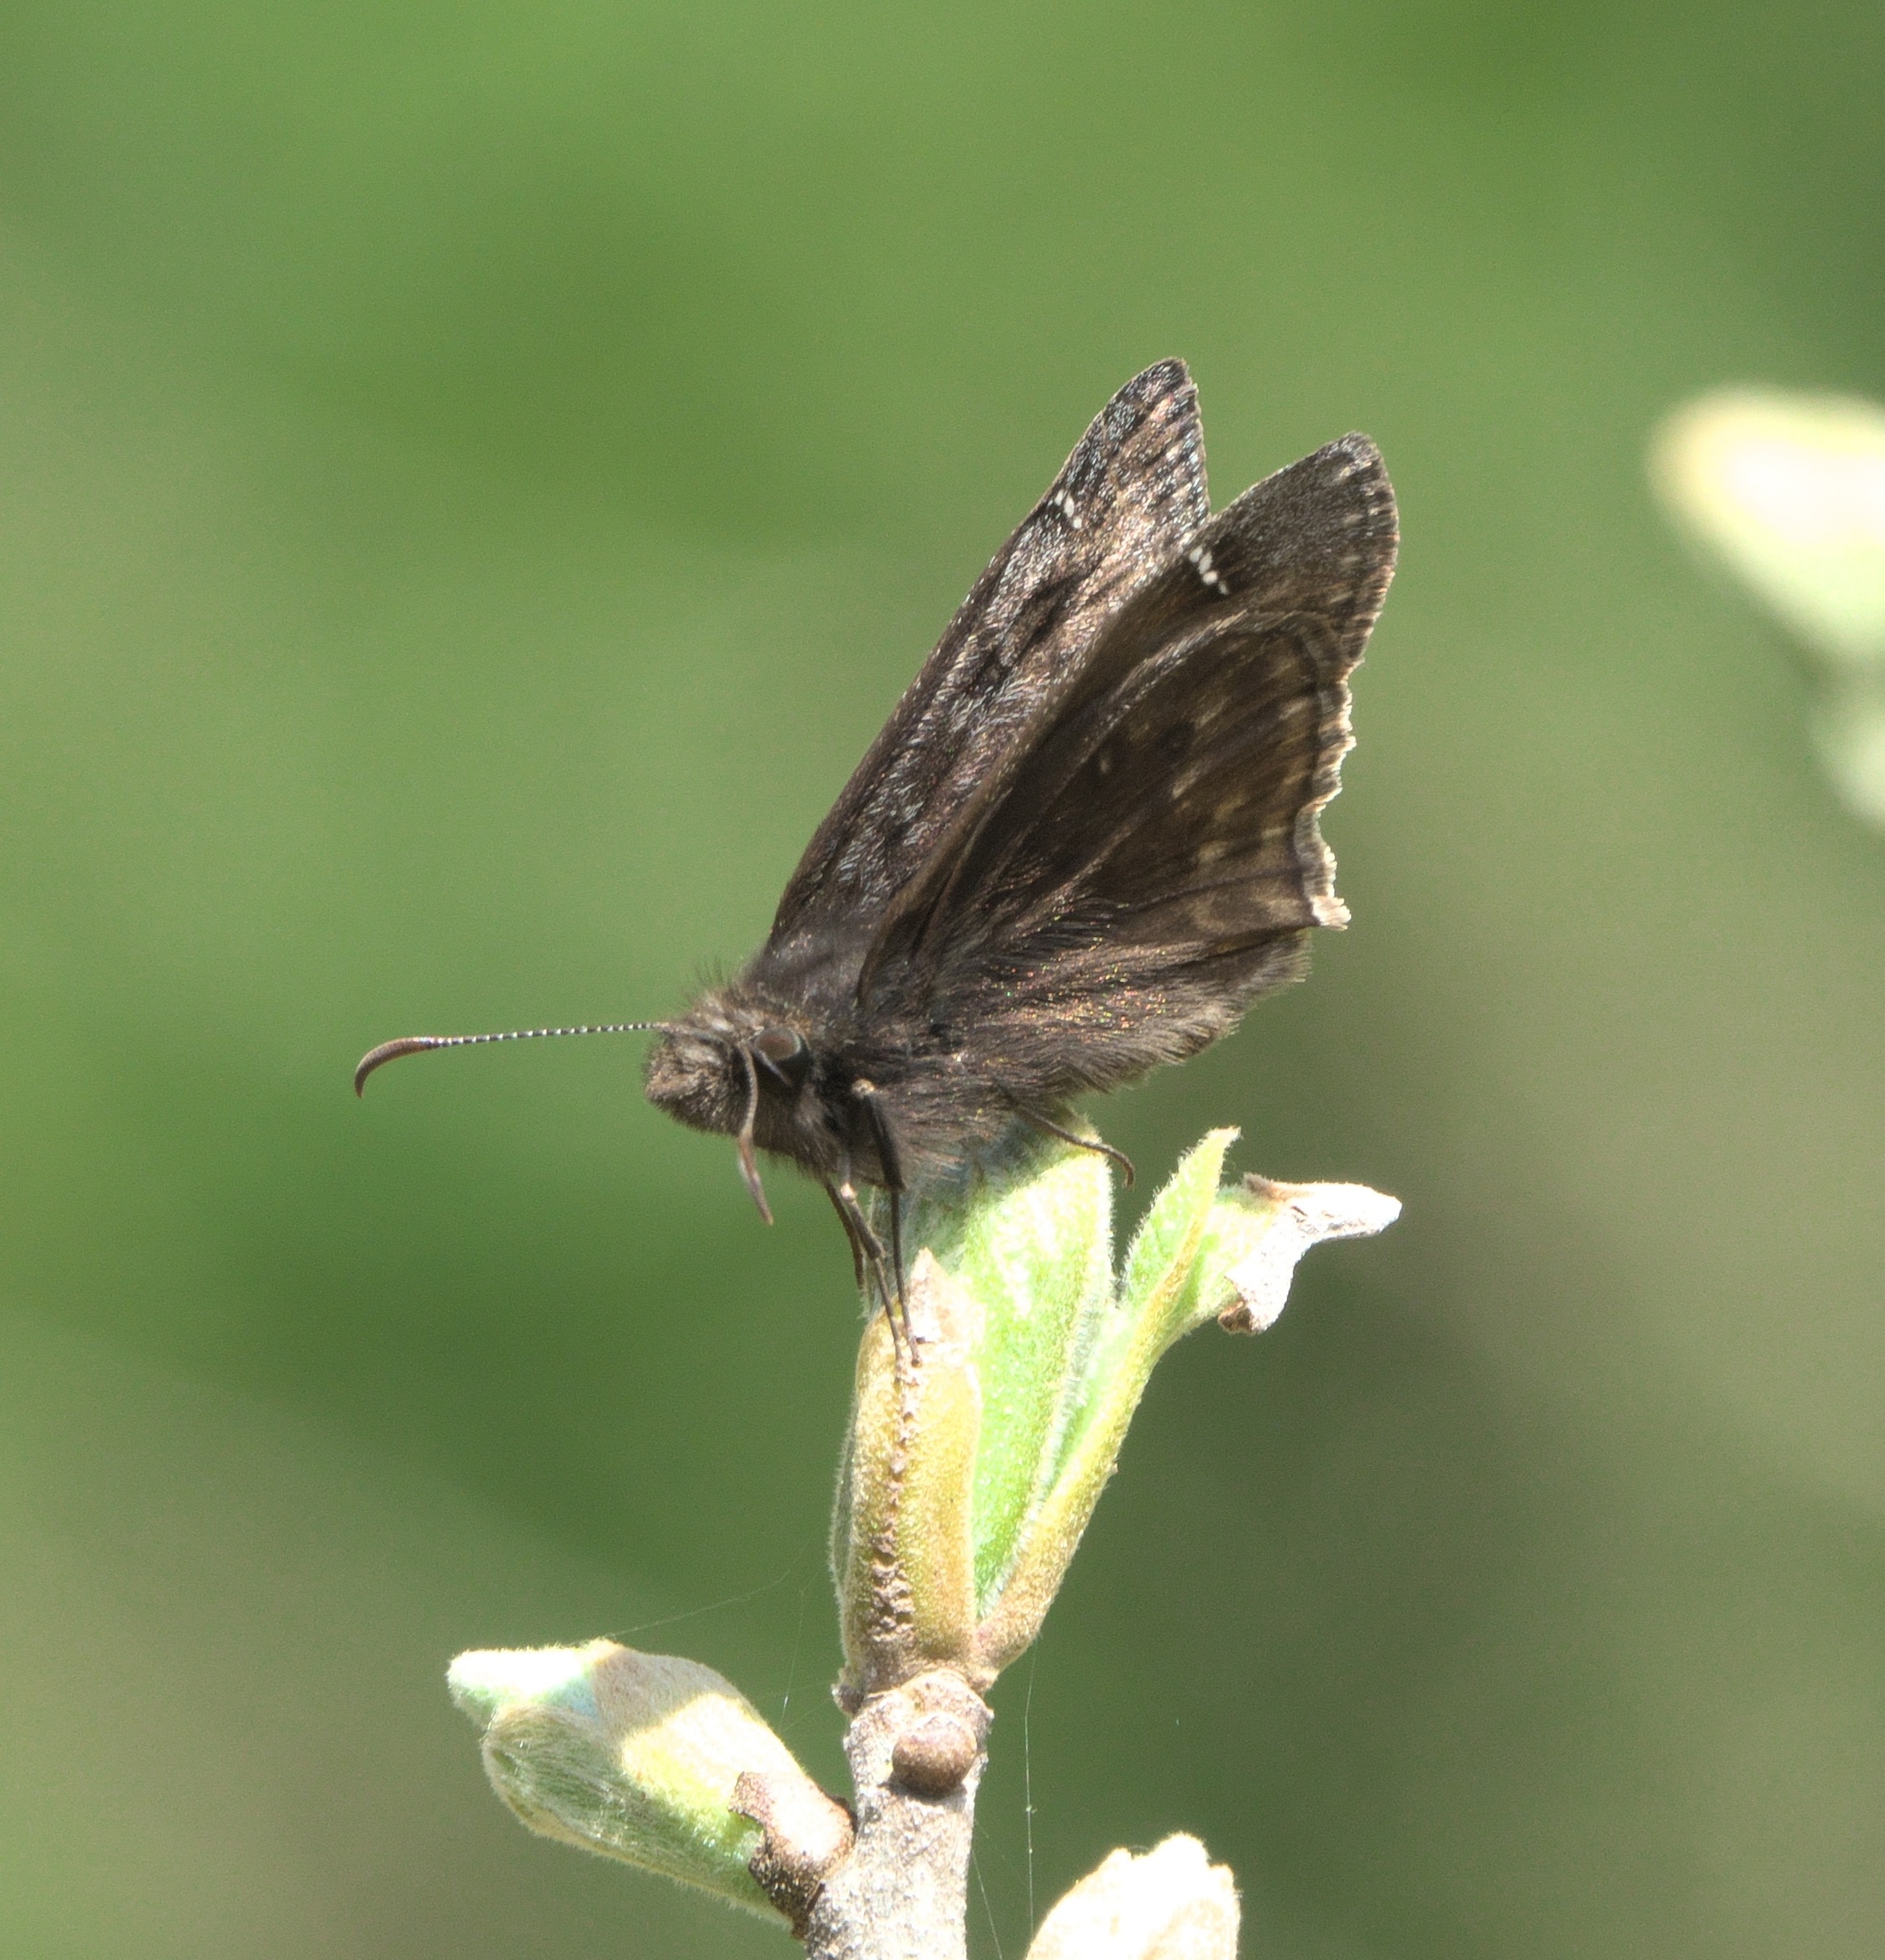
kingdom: Animalia
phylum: Arthropoda
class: Insecta
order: Lepidoptera
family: Hesperiidae
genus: Erynnis
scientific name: Erynnis baptisiae
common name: Wild indigo duskywing
